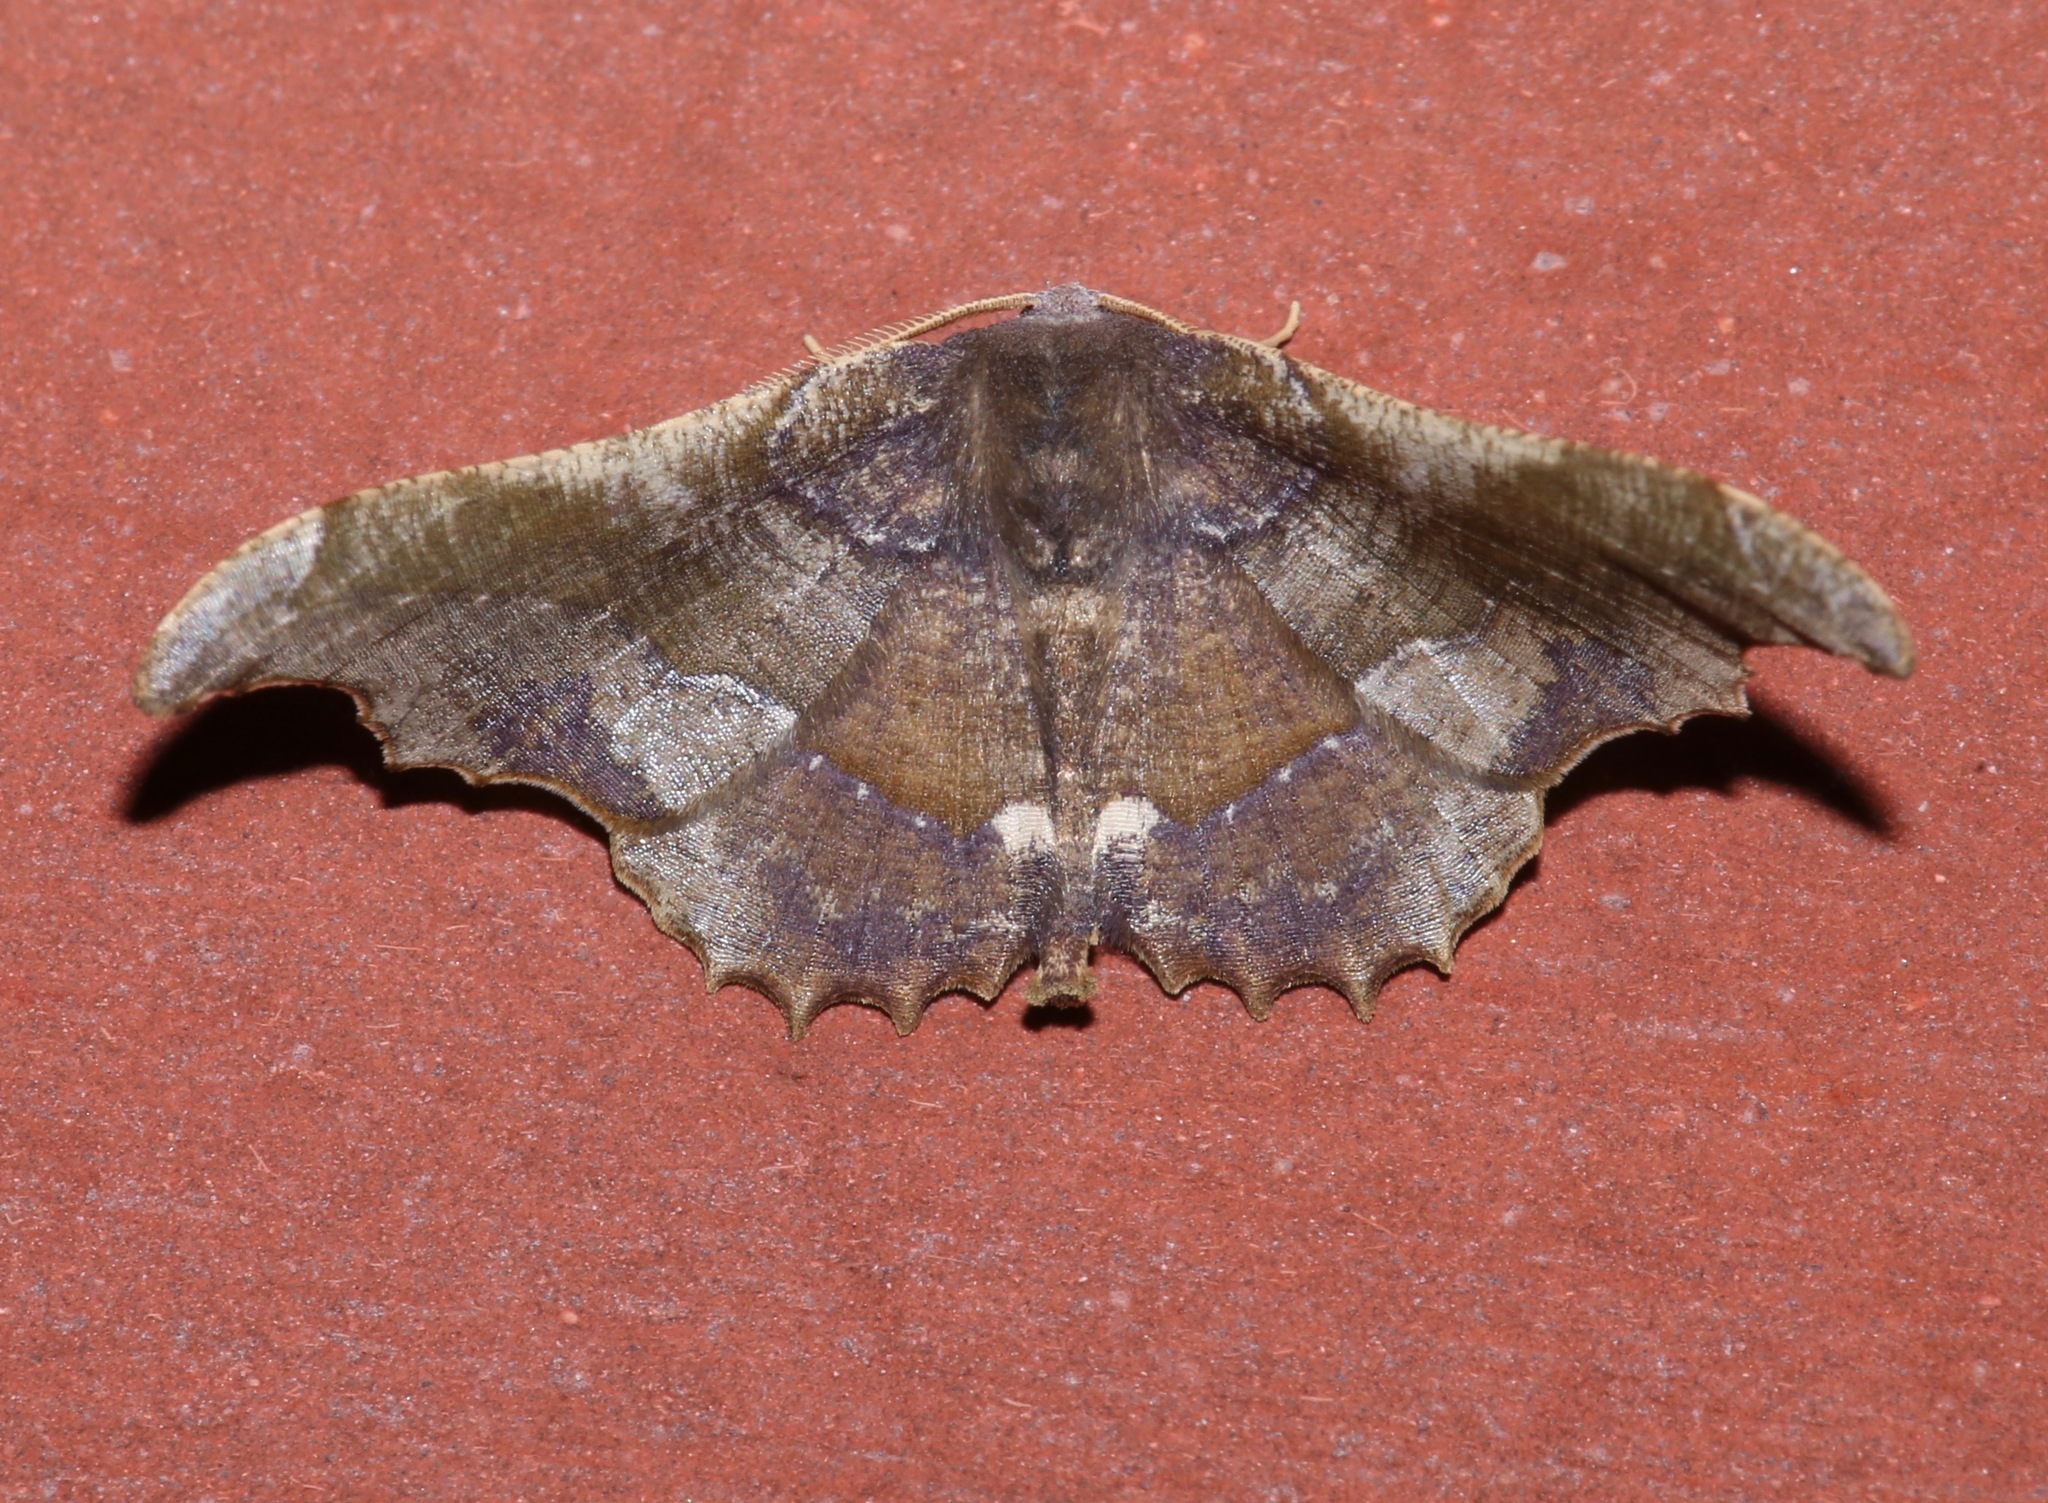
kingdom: Animalia
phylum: Arthropoda
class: Insecta
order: Lepidoptera
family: Geometridae
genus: Patalene
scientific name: Patalene aenetusaria
